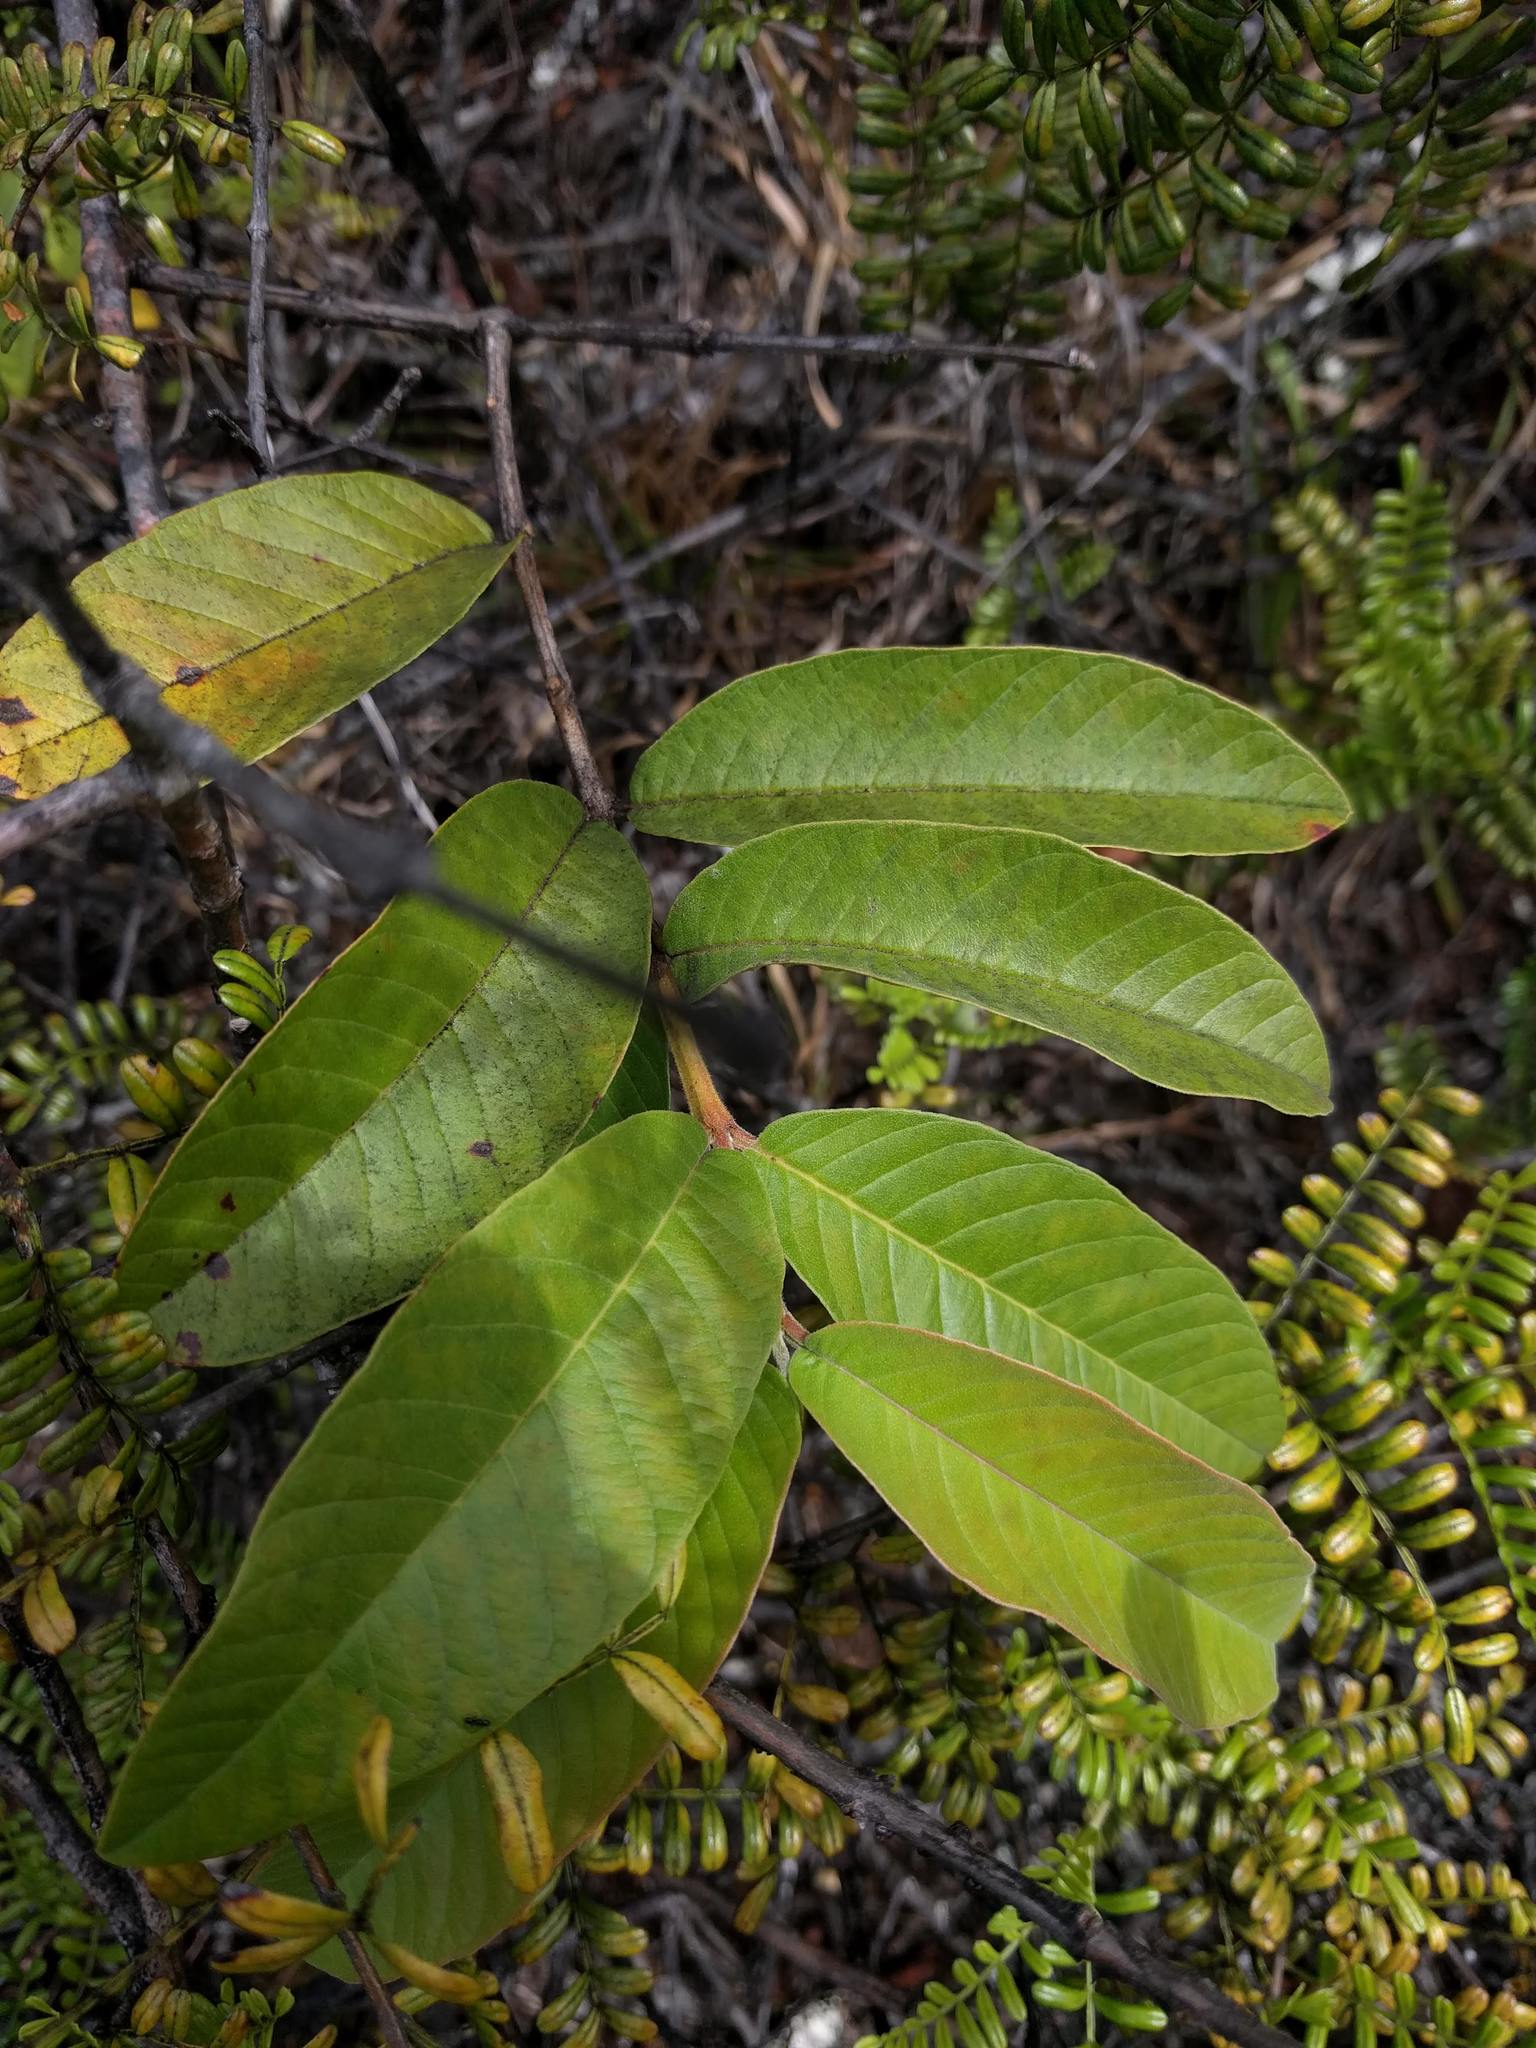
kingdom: Plantae
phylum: Tracheophyta
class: Magnoliopsida
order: Myrtales
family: Myrtaceae
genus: Psidium
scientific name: Psidium guajava
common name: Guava
